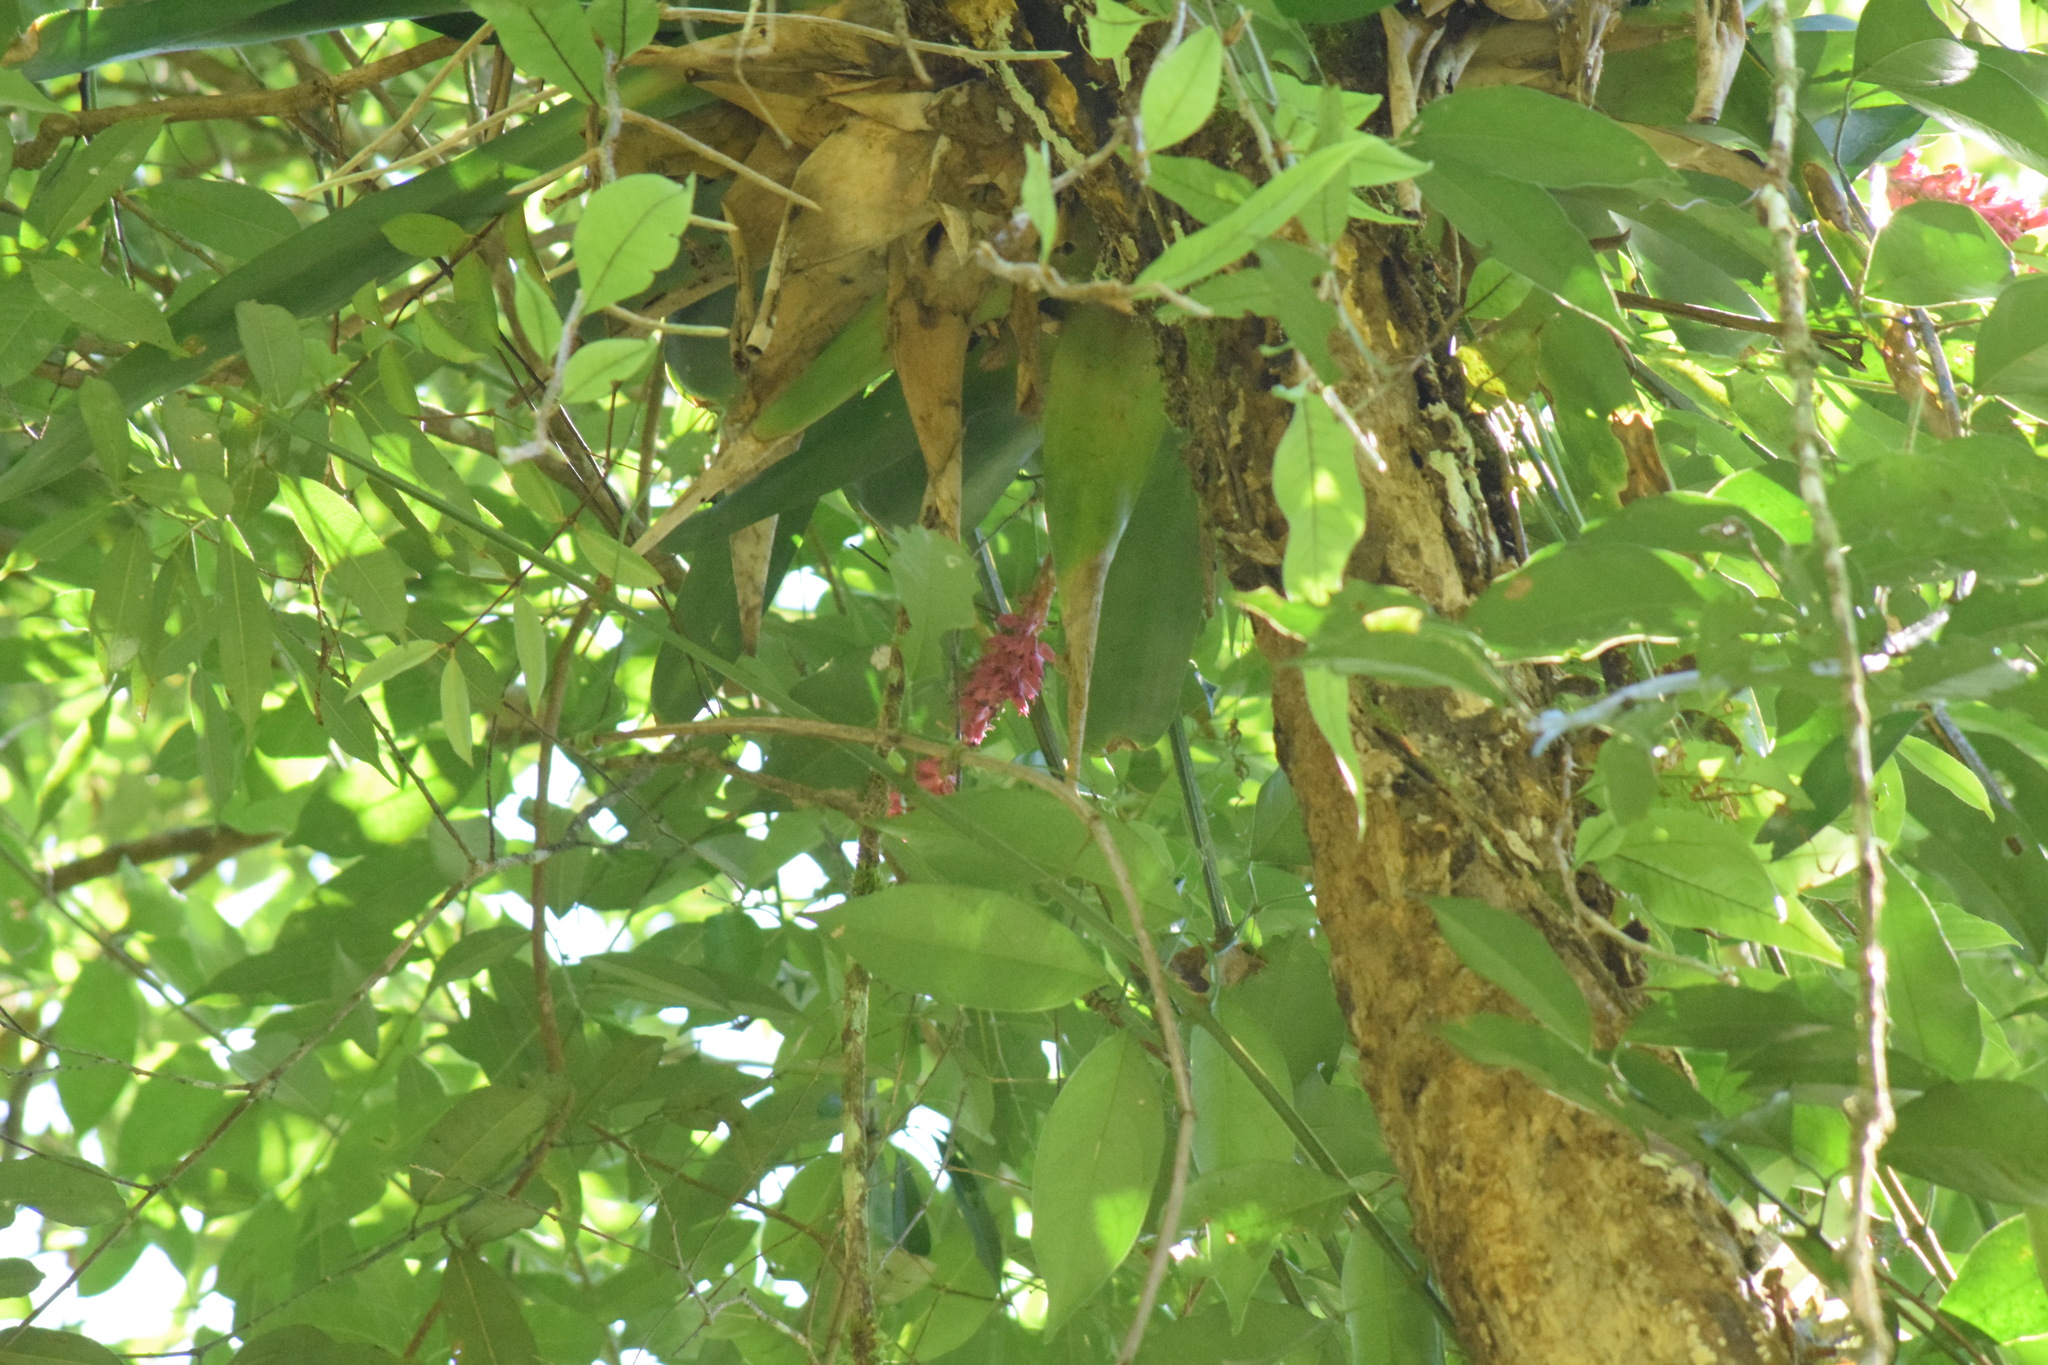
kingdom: Plantae
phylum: Tracheophyta
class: Liliopsida
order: Poales
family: Bromeliaceae
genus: Aechmea
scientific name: Aechmea cylindrata
